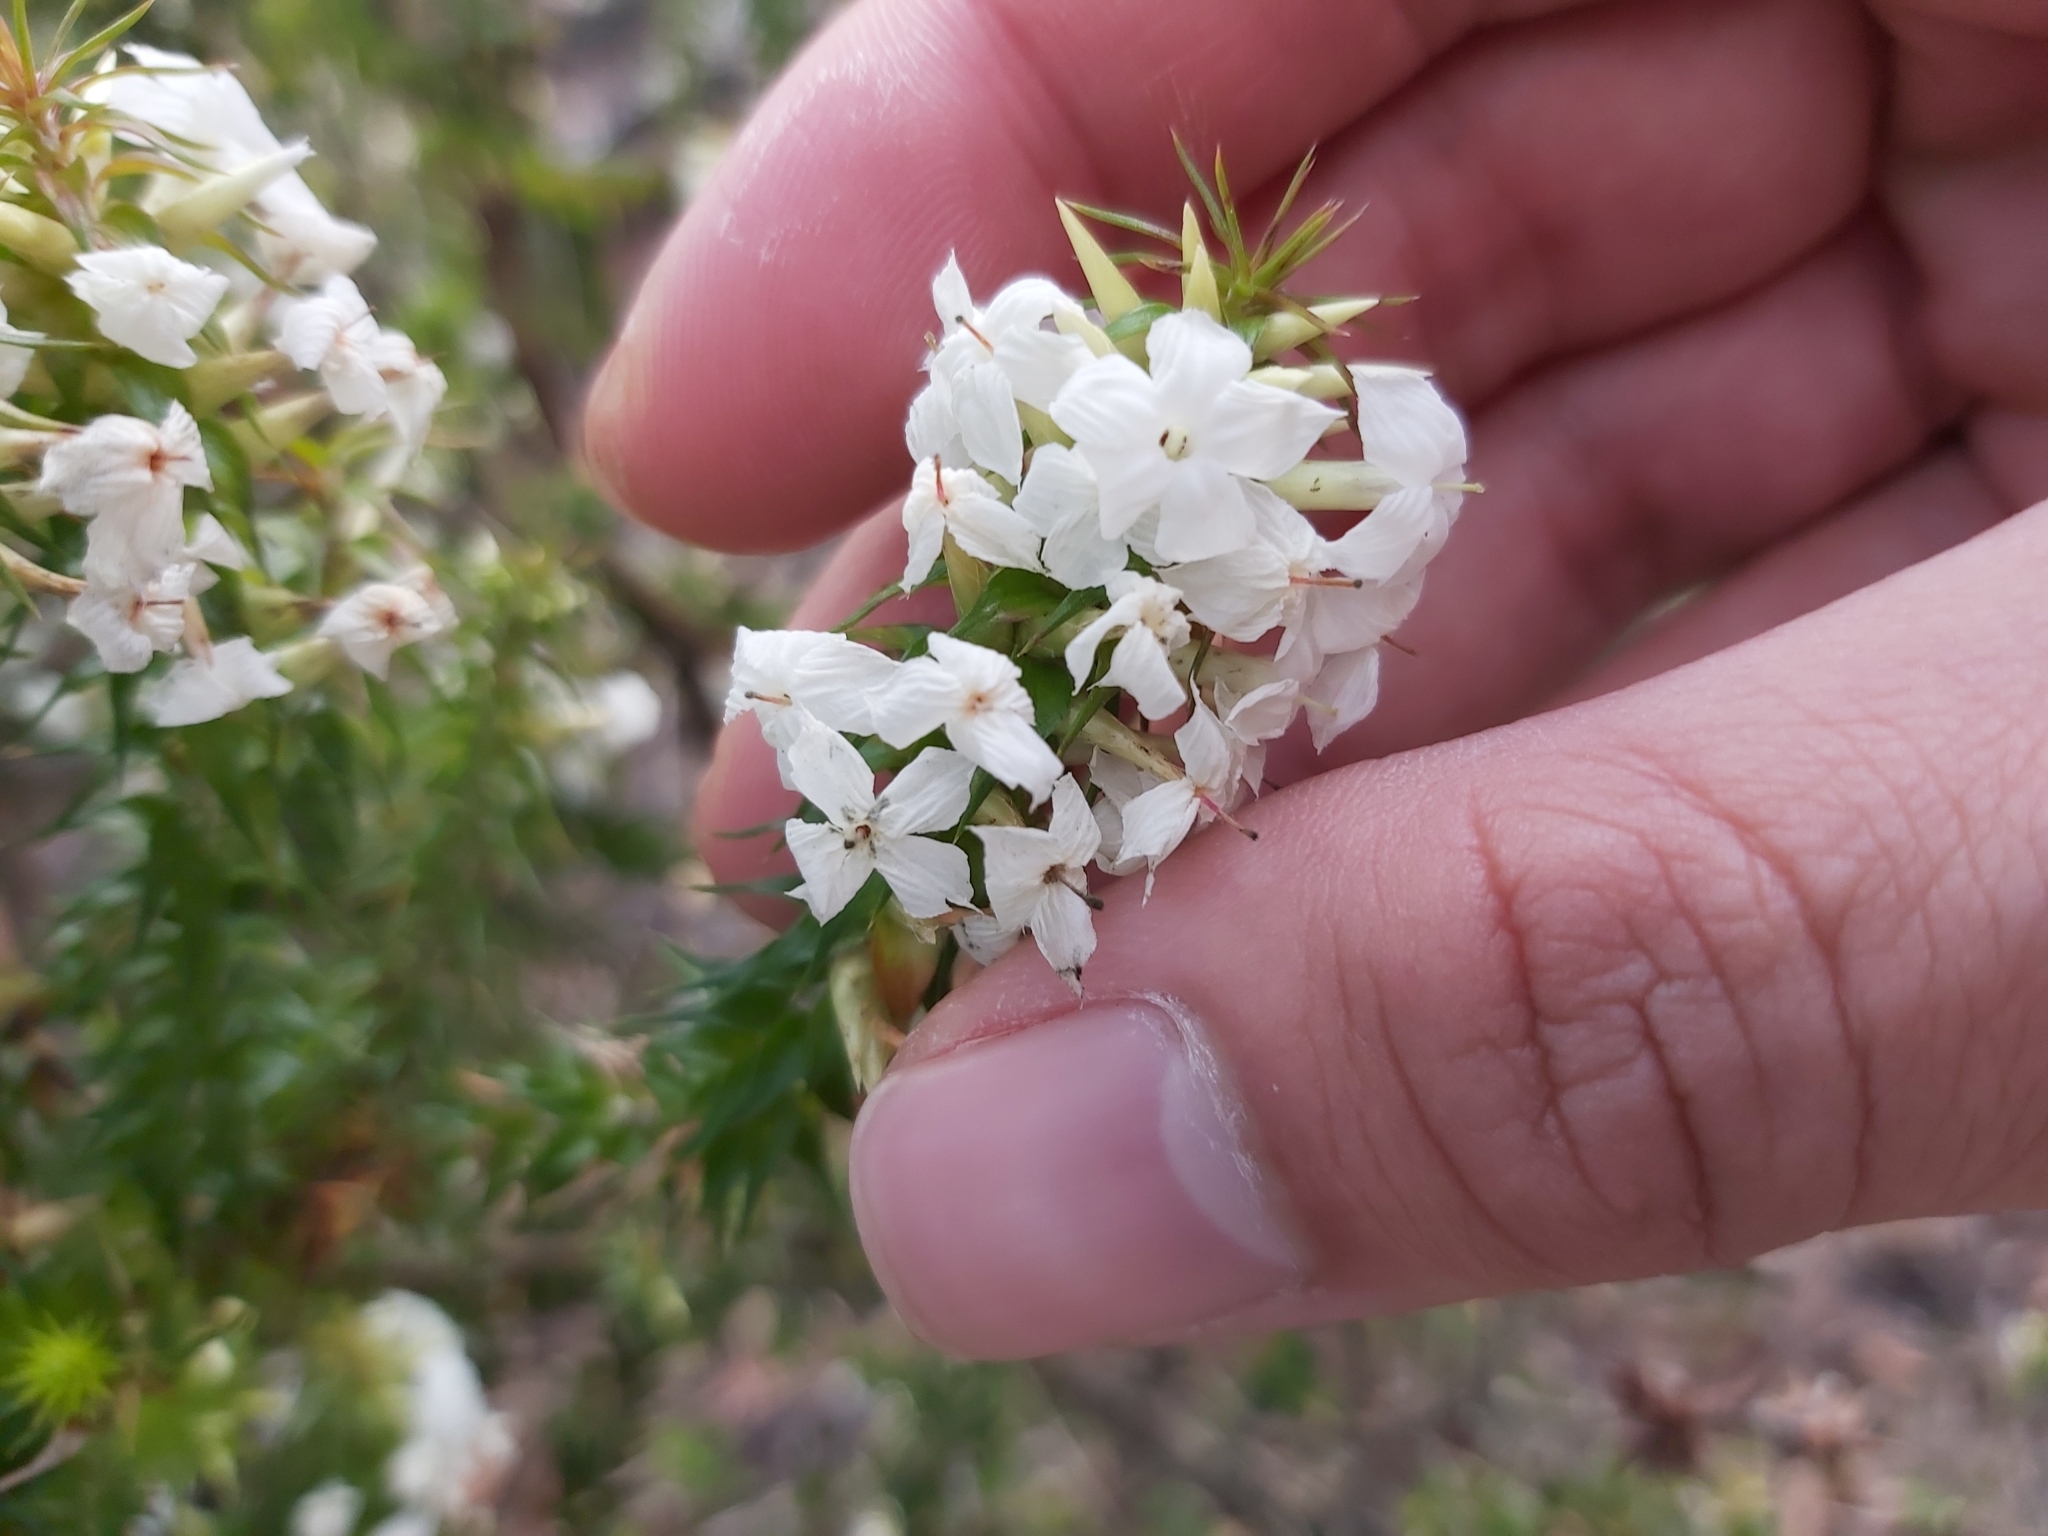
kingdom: Plantae
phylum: Tracheophyta
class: Magnoliopsida
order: Ericales
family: Ericaceae
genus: Woollsia
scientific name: Woollsia pungens
